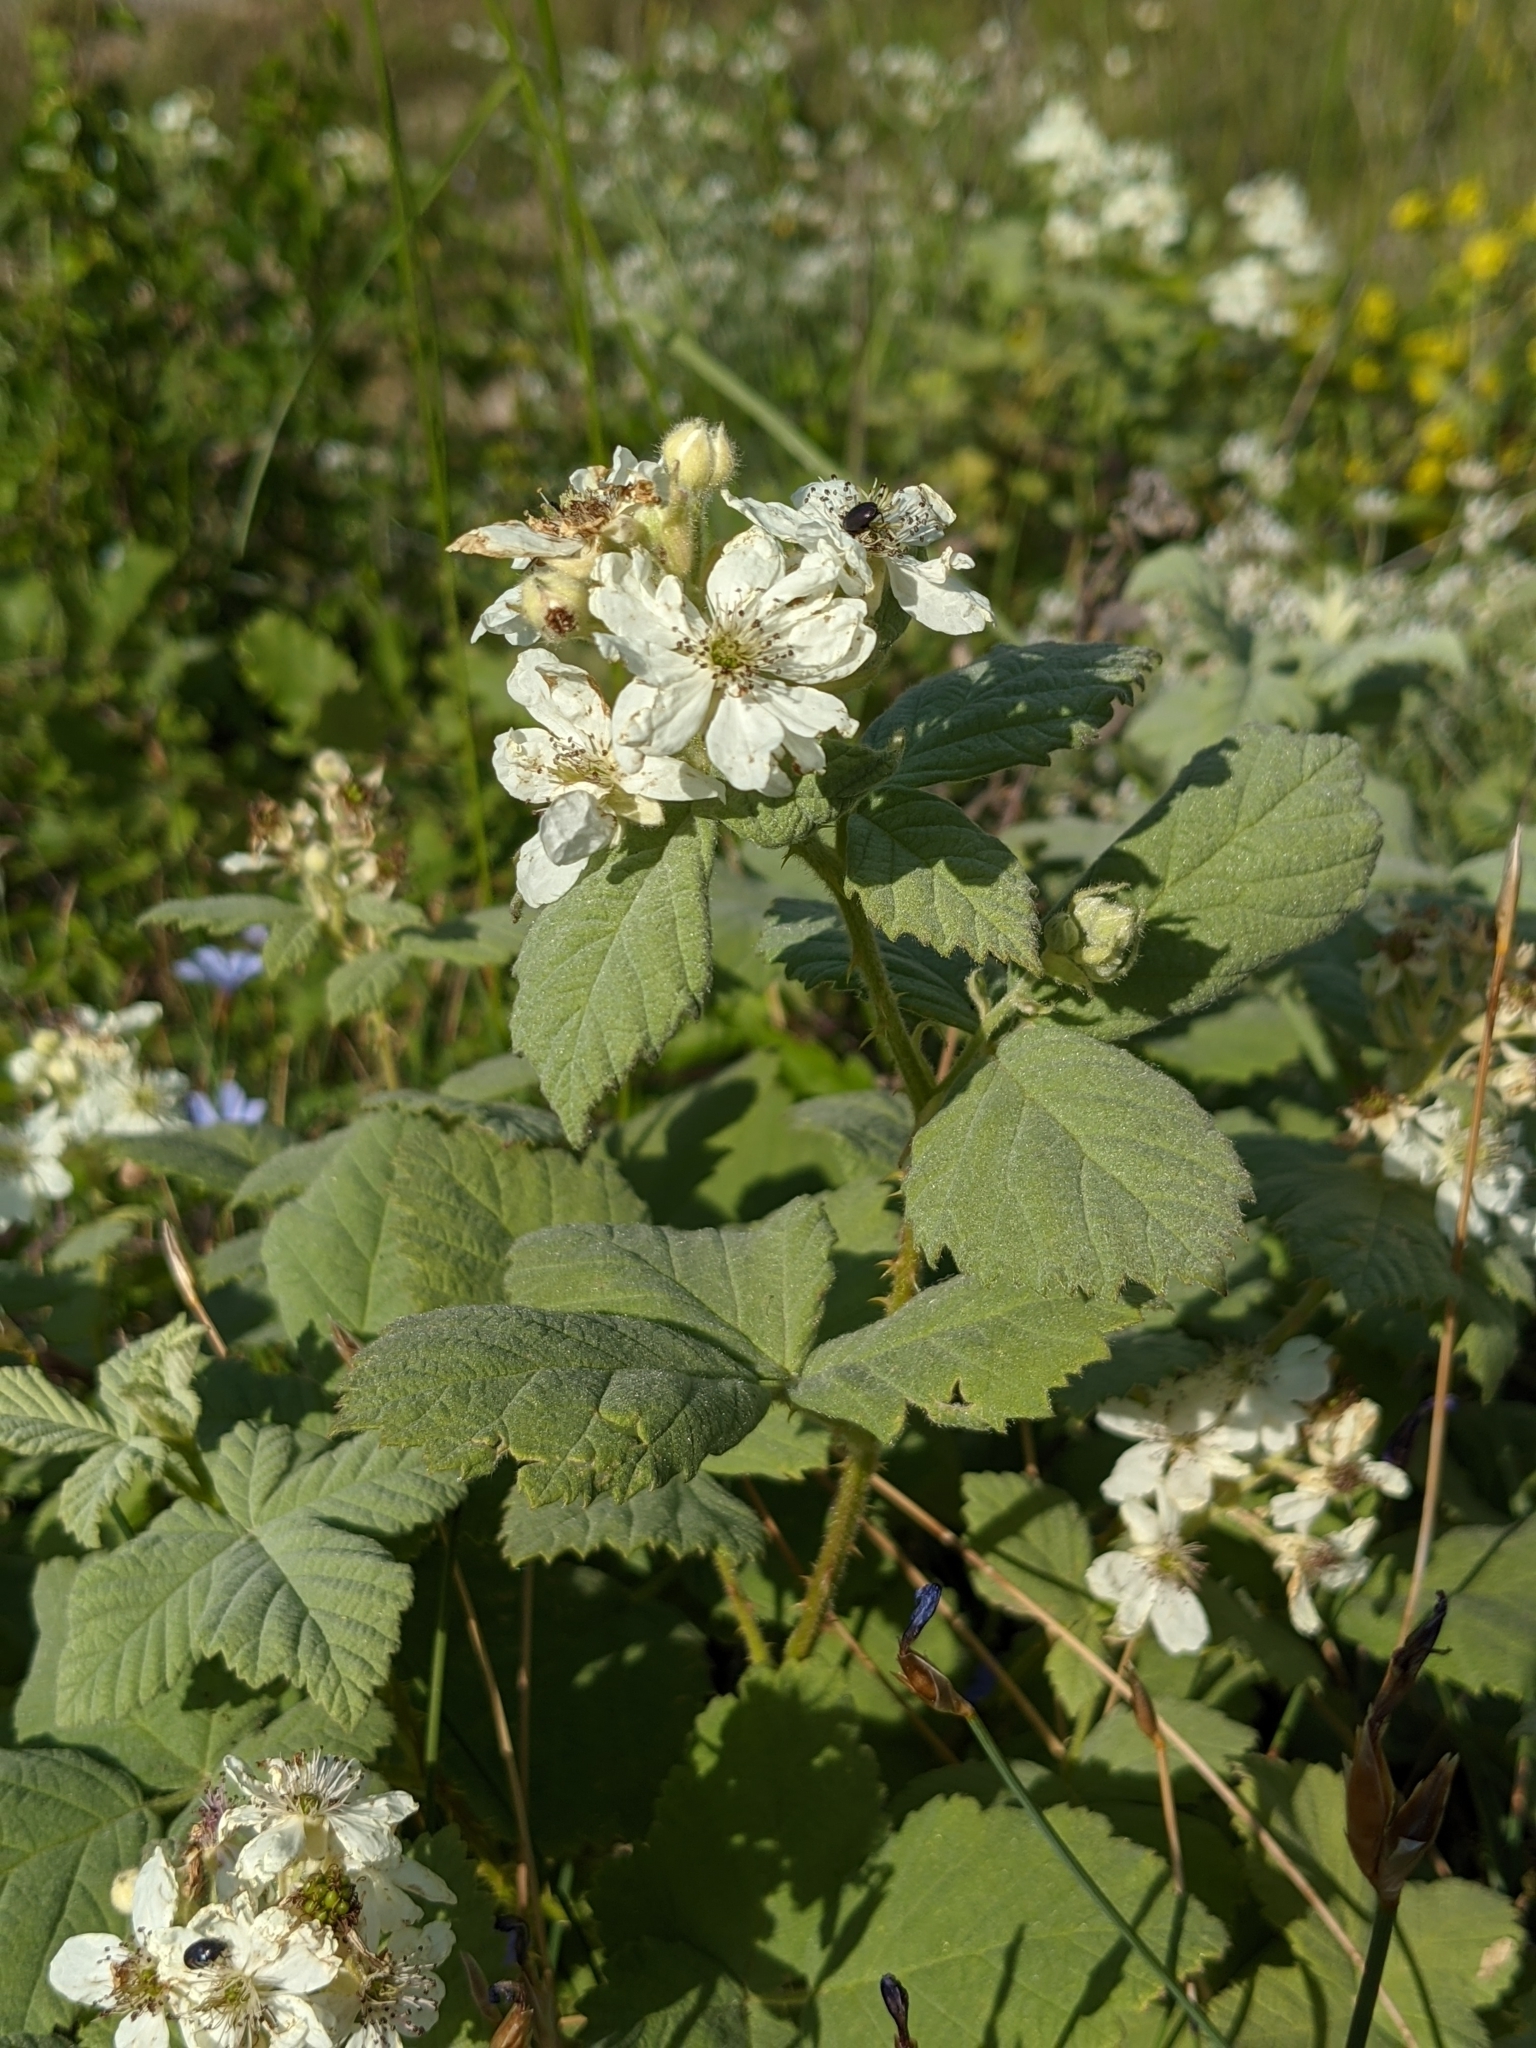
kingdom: Plantae
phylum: Tracheophyta
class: Magnoliopsida
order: Rosales
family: Rosaceae
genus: Rubus
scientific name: Rubus canescens
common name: Wooly blackberry
